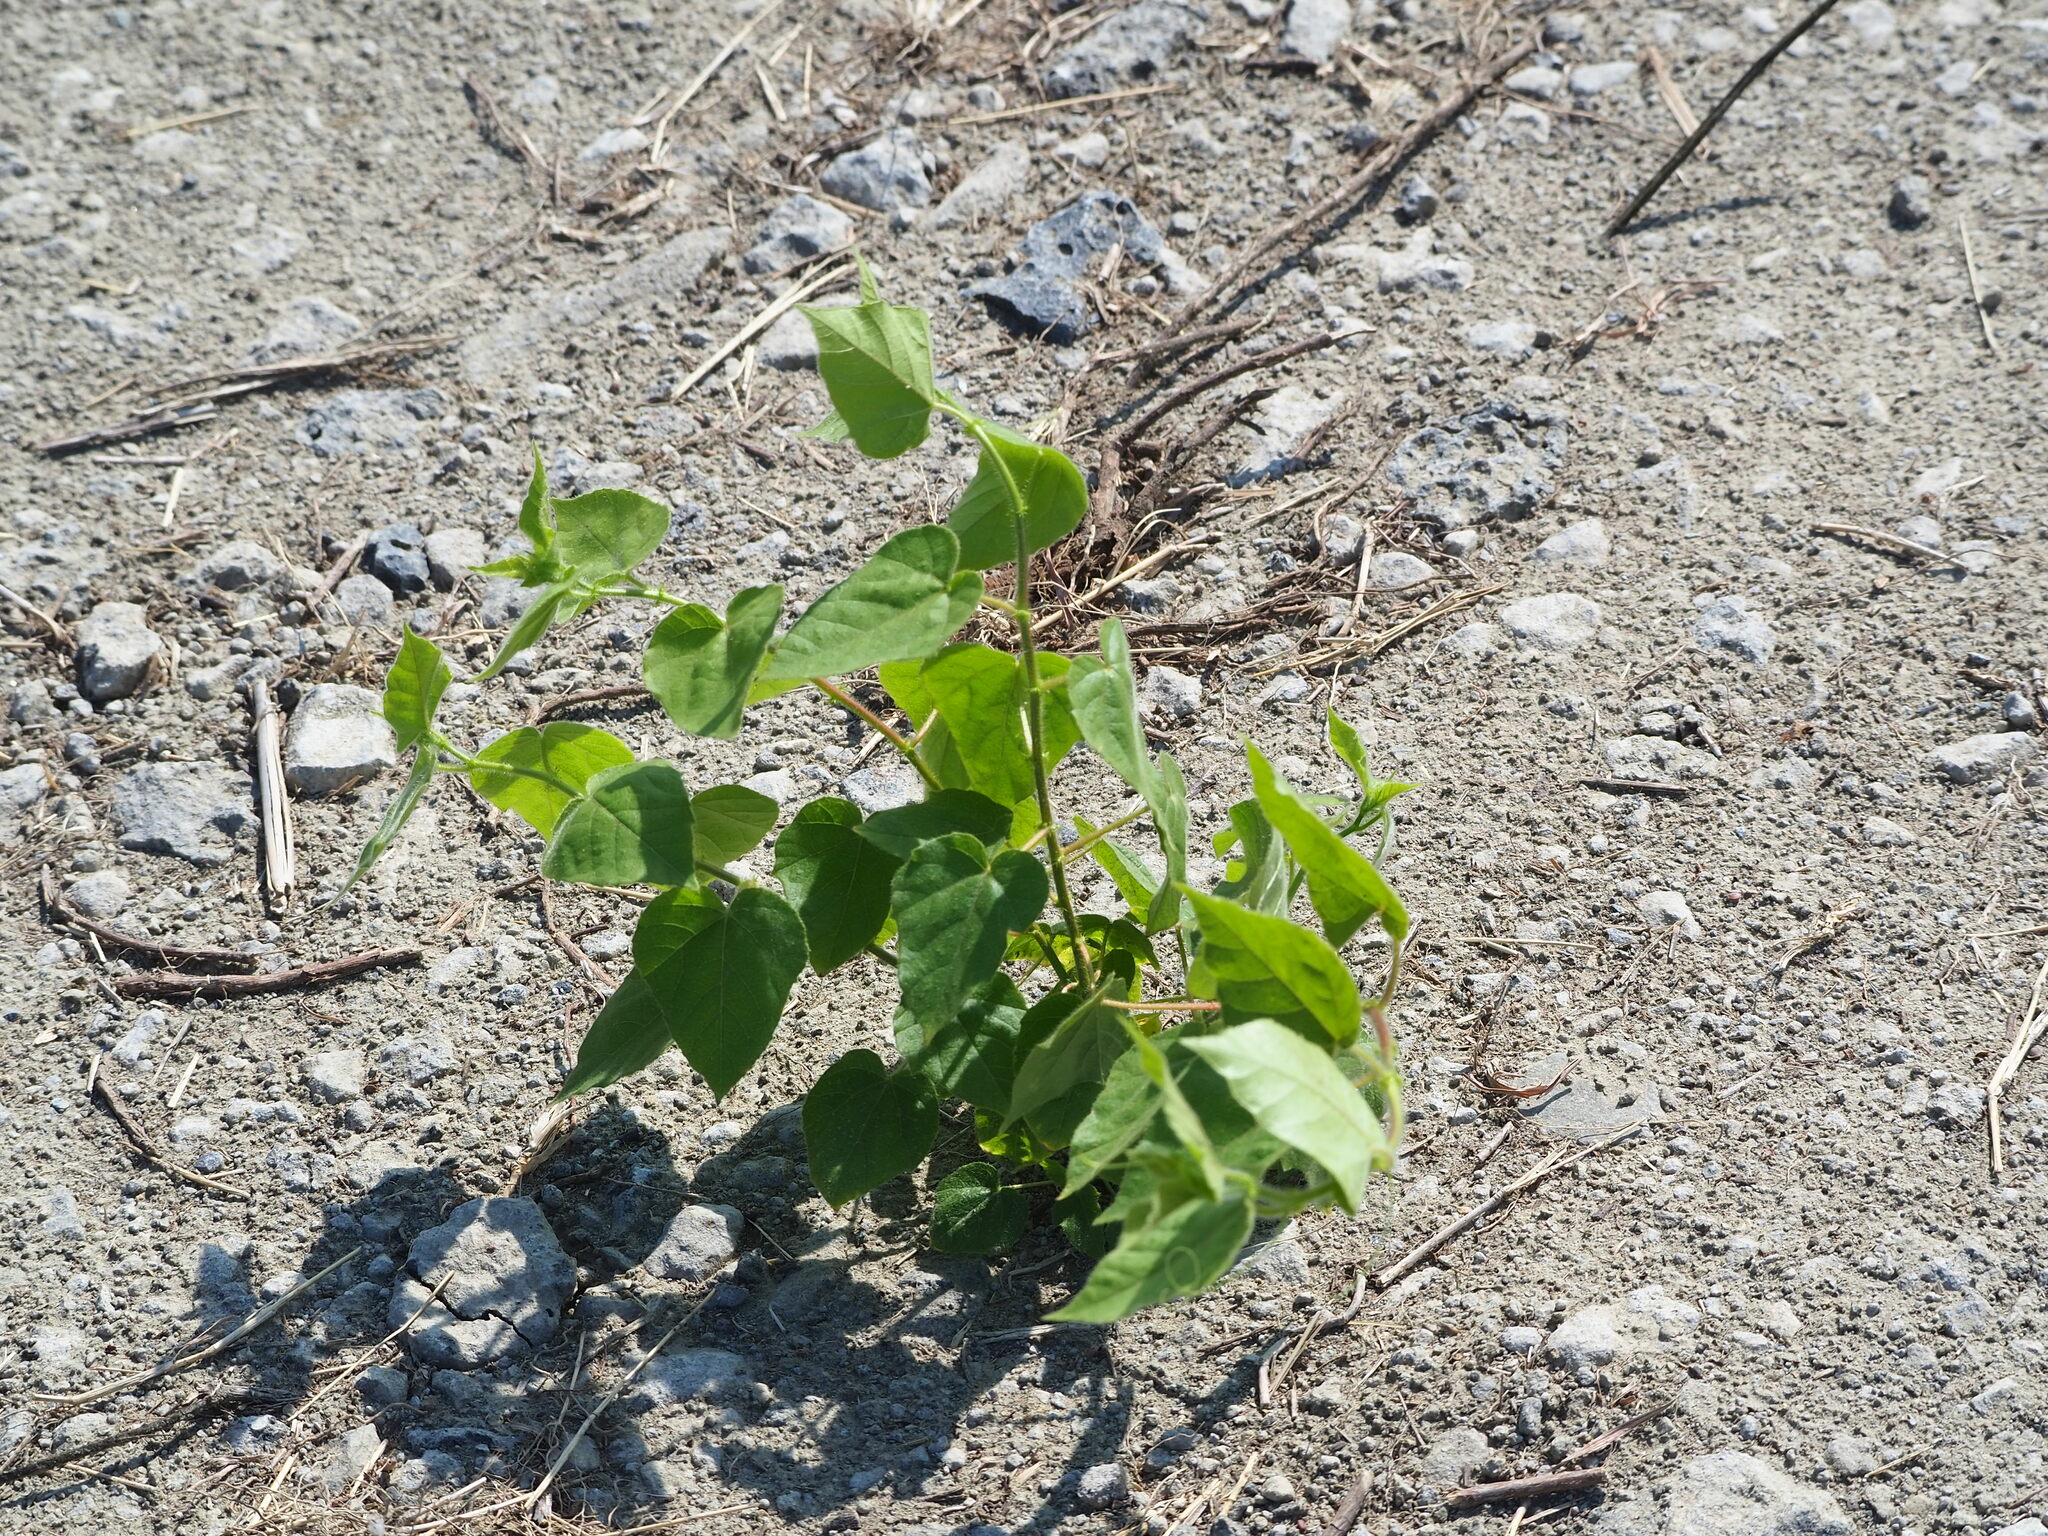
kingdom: Plantae
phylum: Tracheophyta
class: Magnoliopsida
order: Malpighiales
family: Passifloraceae
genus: Passiflora
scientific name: Passiflora vesicaria
